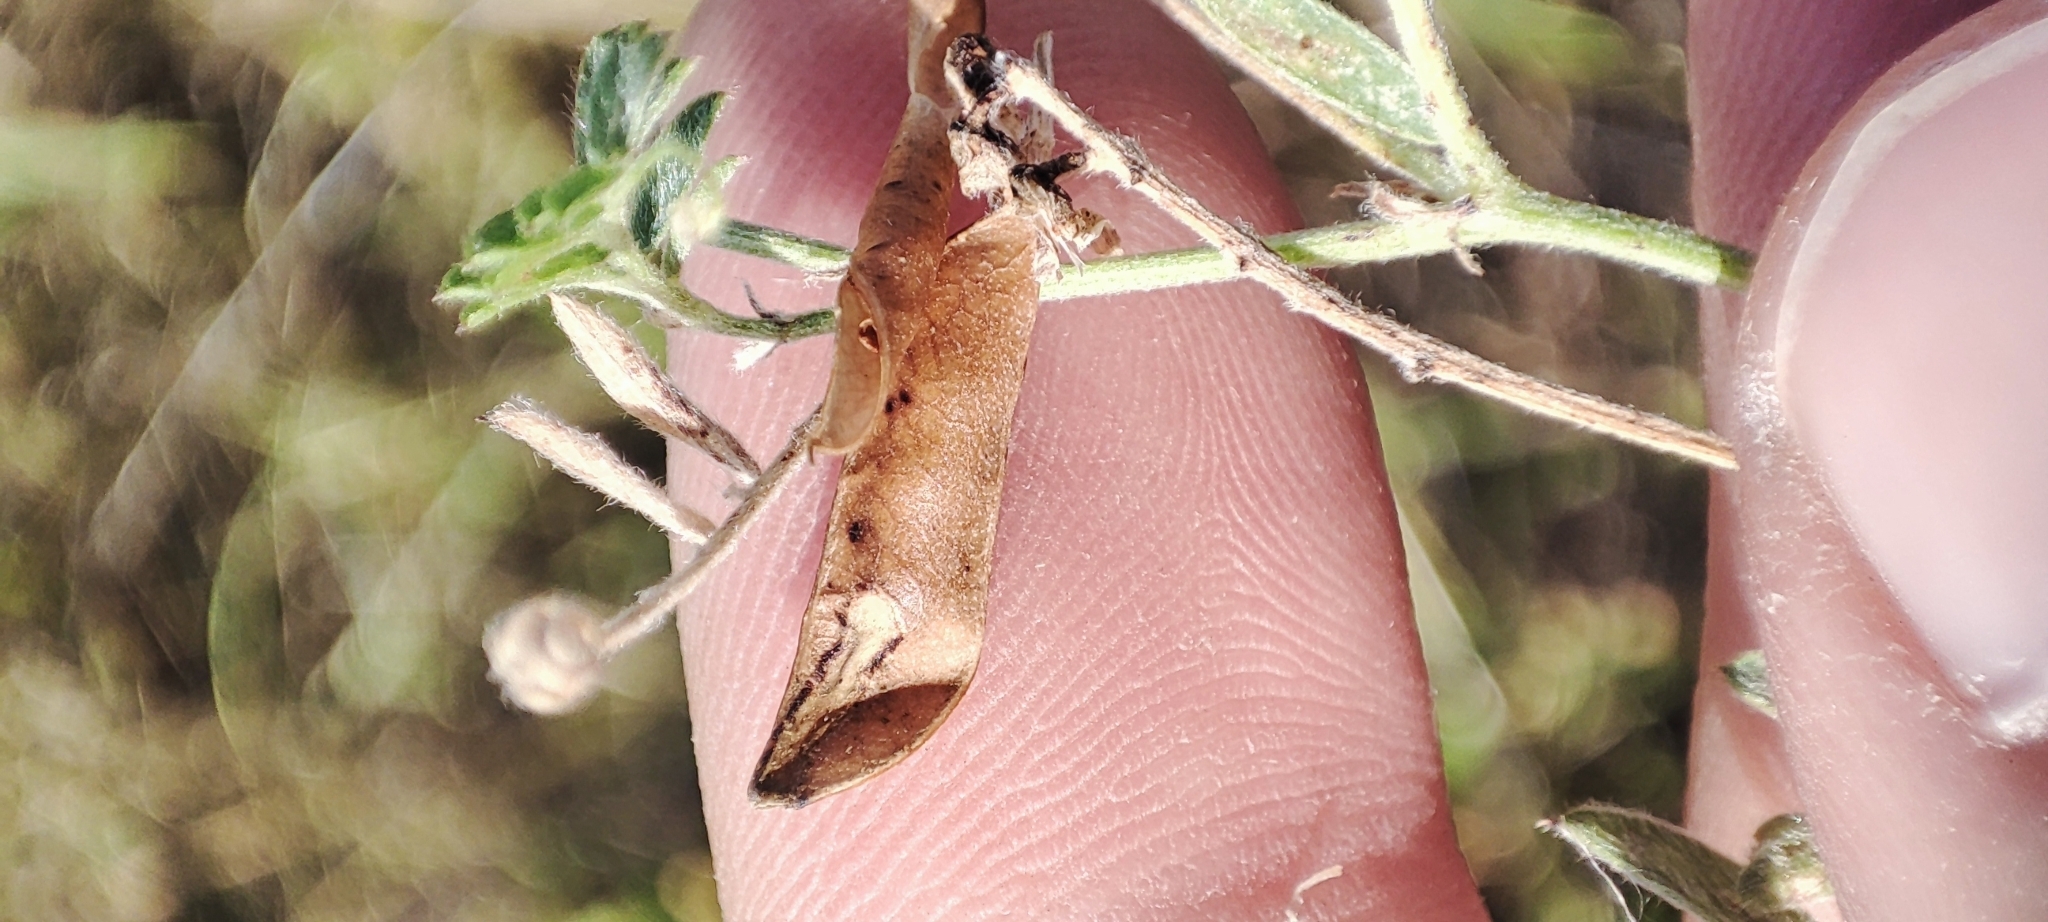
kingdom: Plantae
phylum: Tracheophyta
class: Magnoliopsida
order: Fabales
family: Fabaceae
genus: Vicia
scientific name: Vicia cracca
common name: Bird vetch
